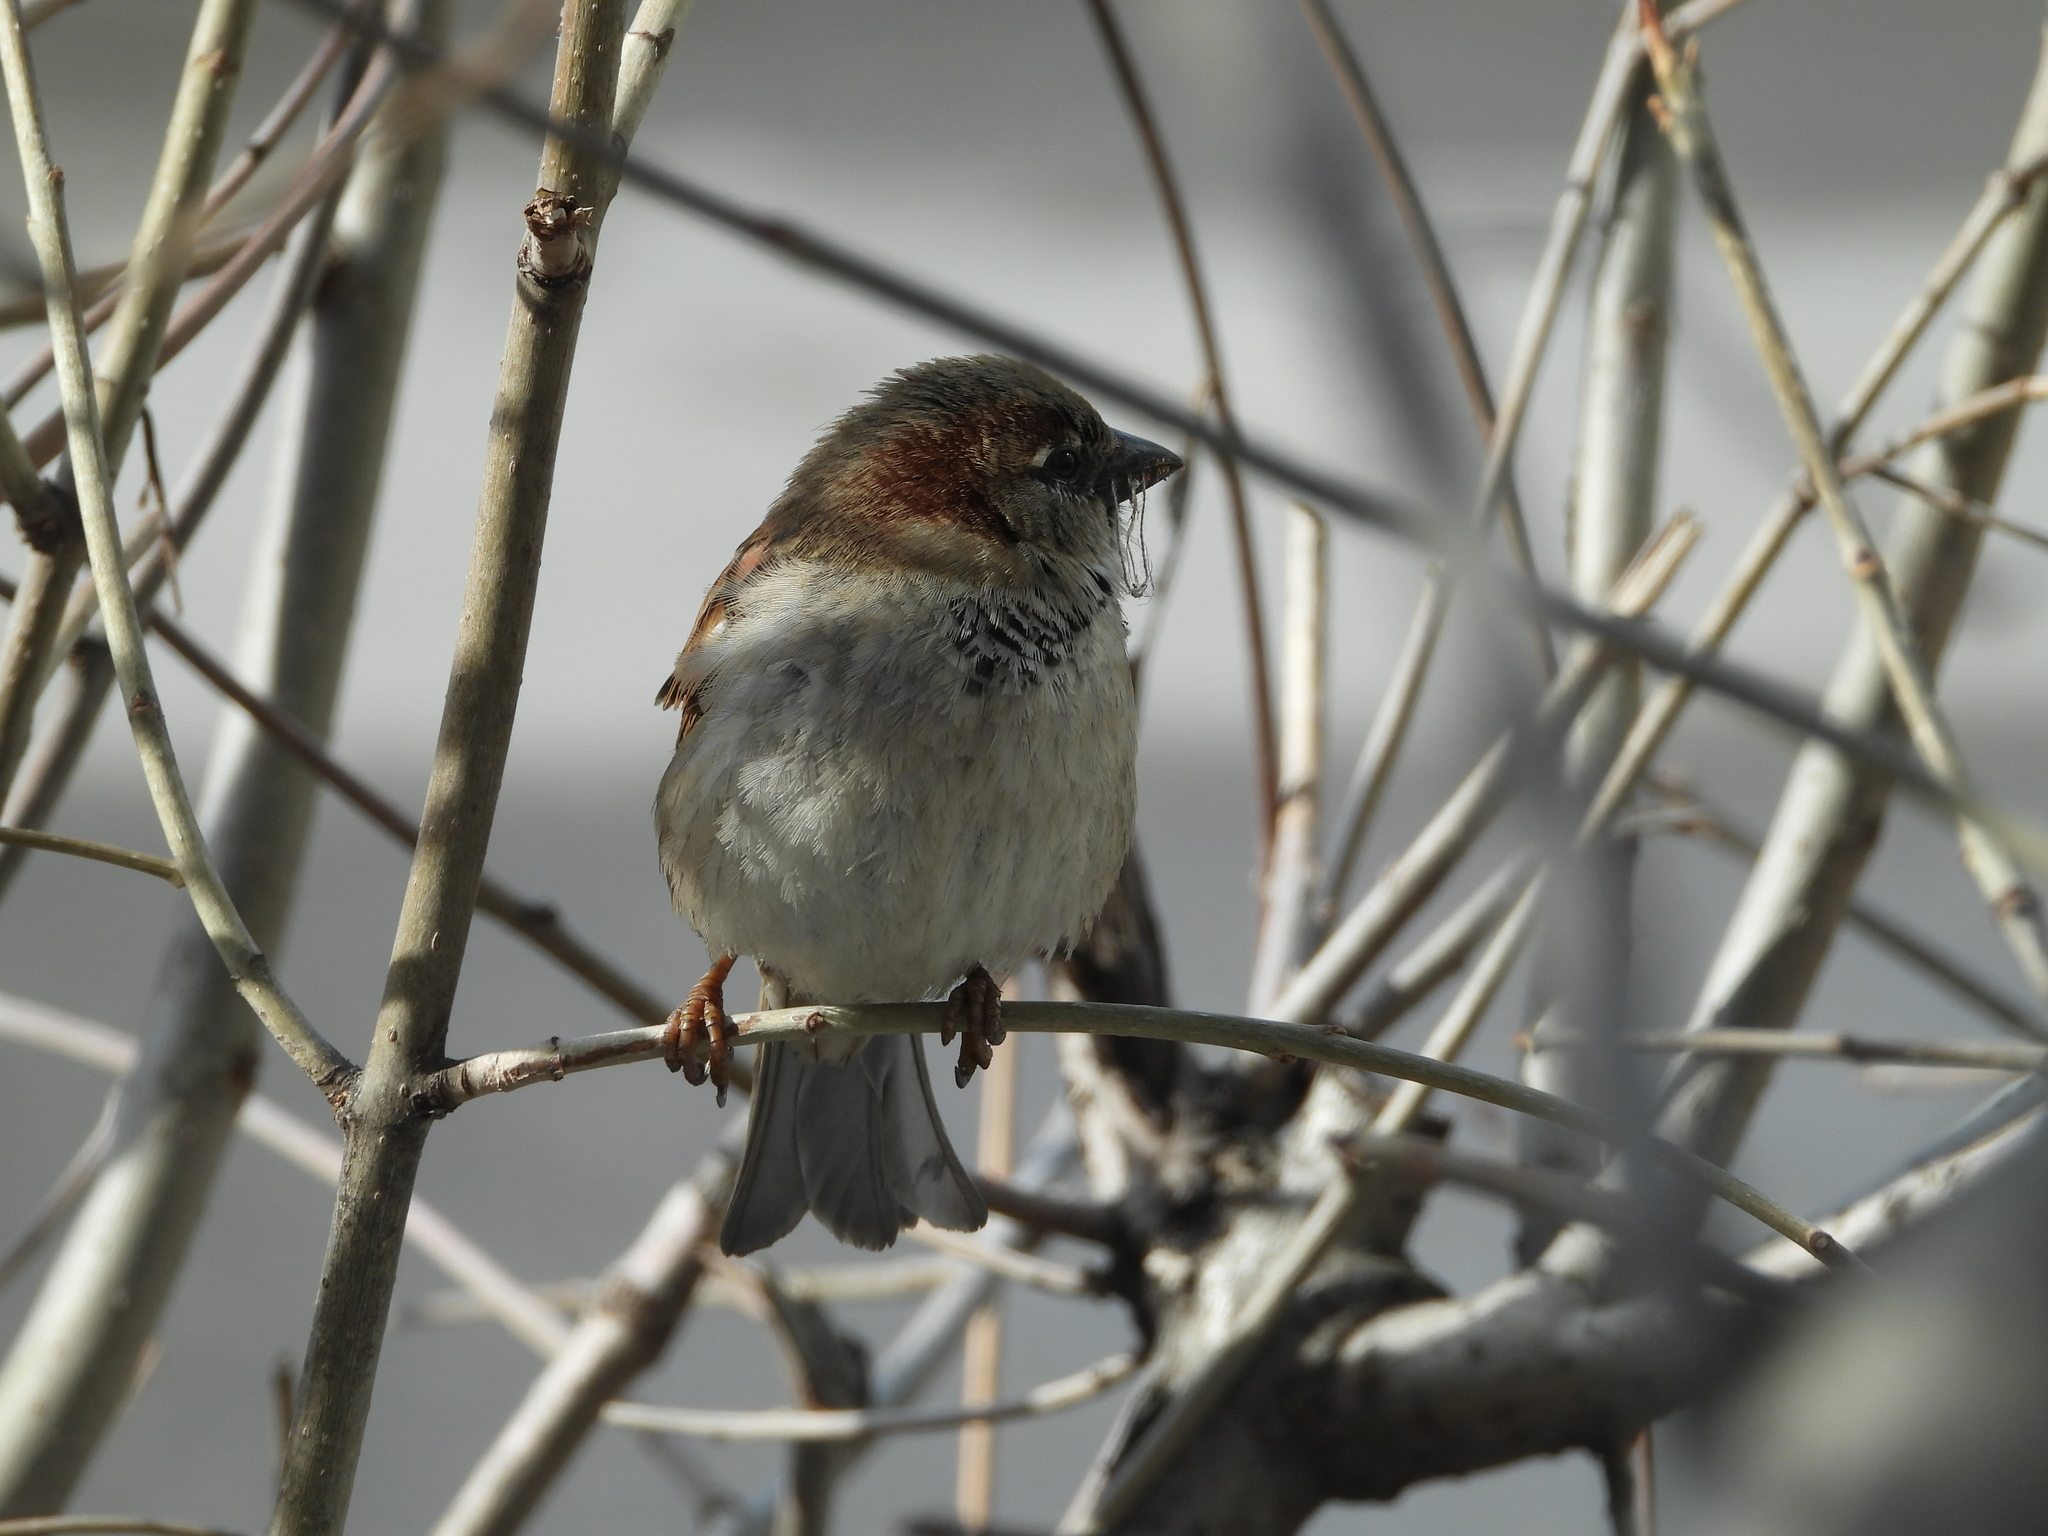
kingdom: Animalia
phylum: Chordata
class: Aves
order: Passeriformes
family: Passeridae
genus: Passer
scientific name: Passer domesticus
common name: House sparrow
